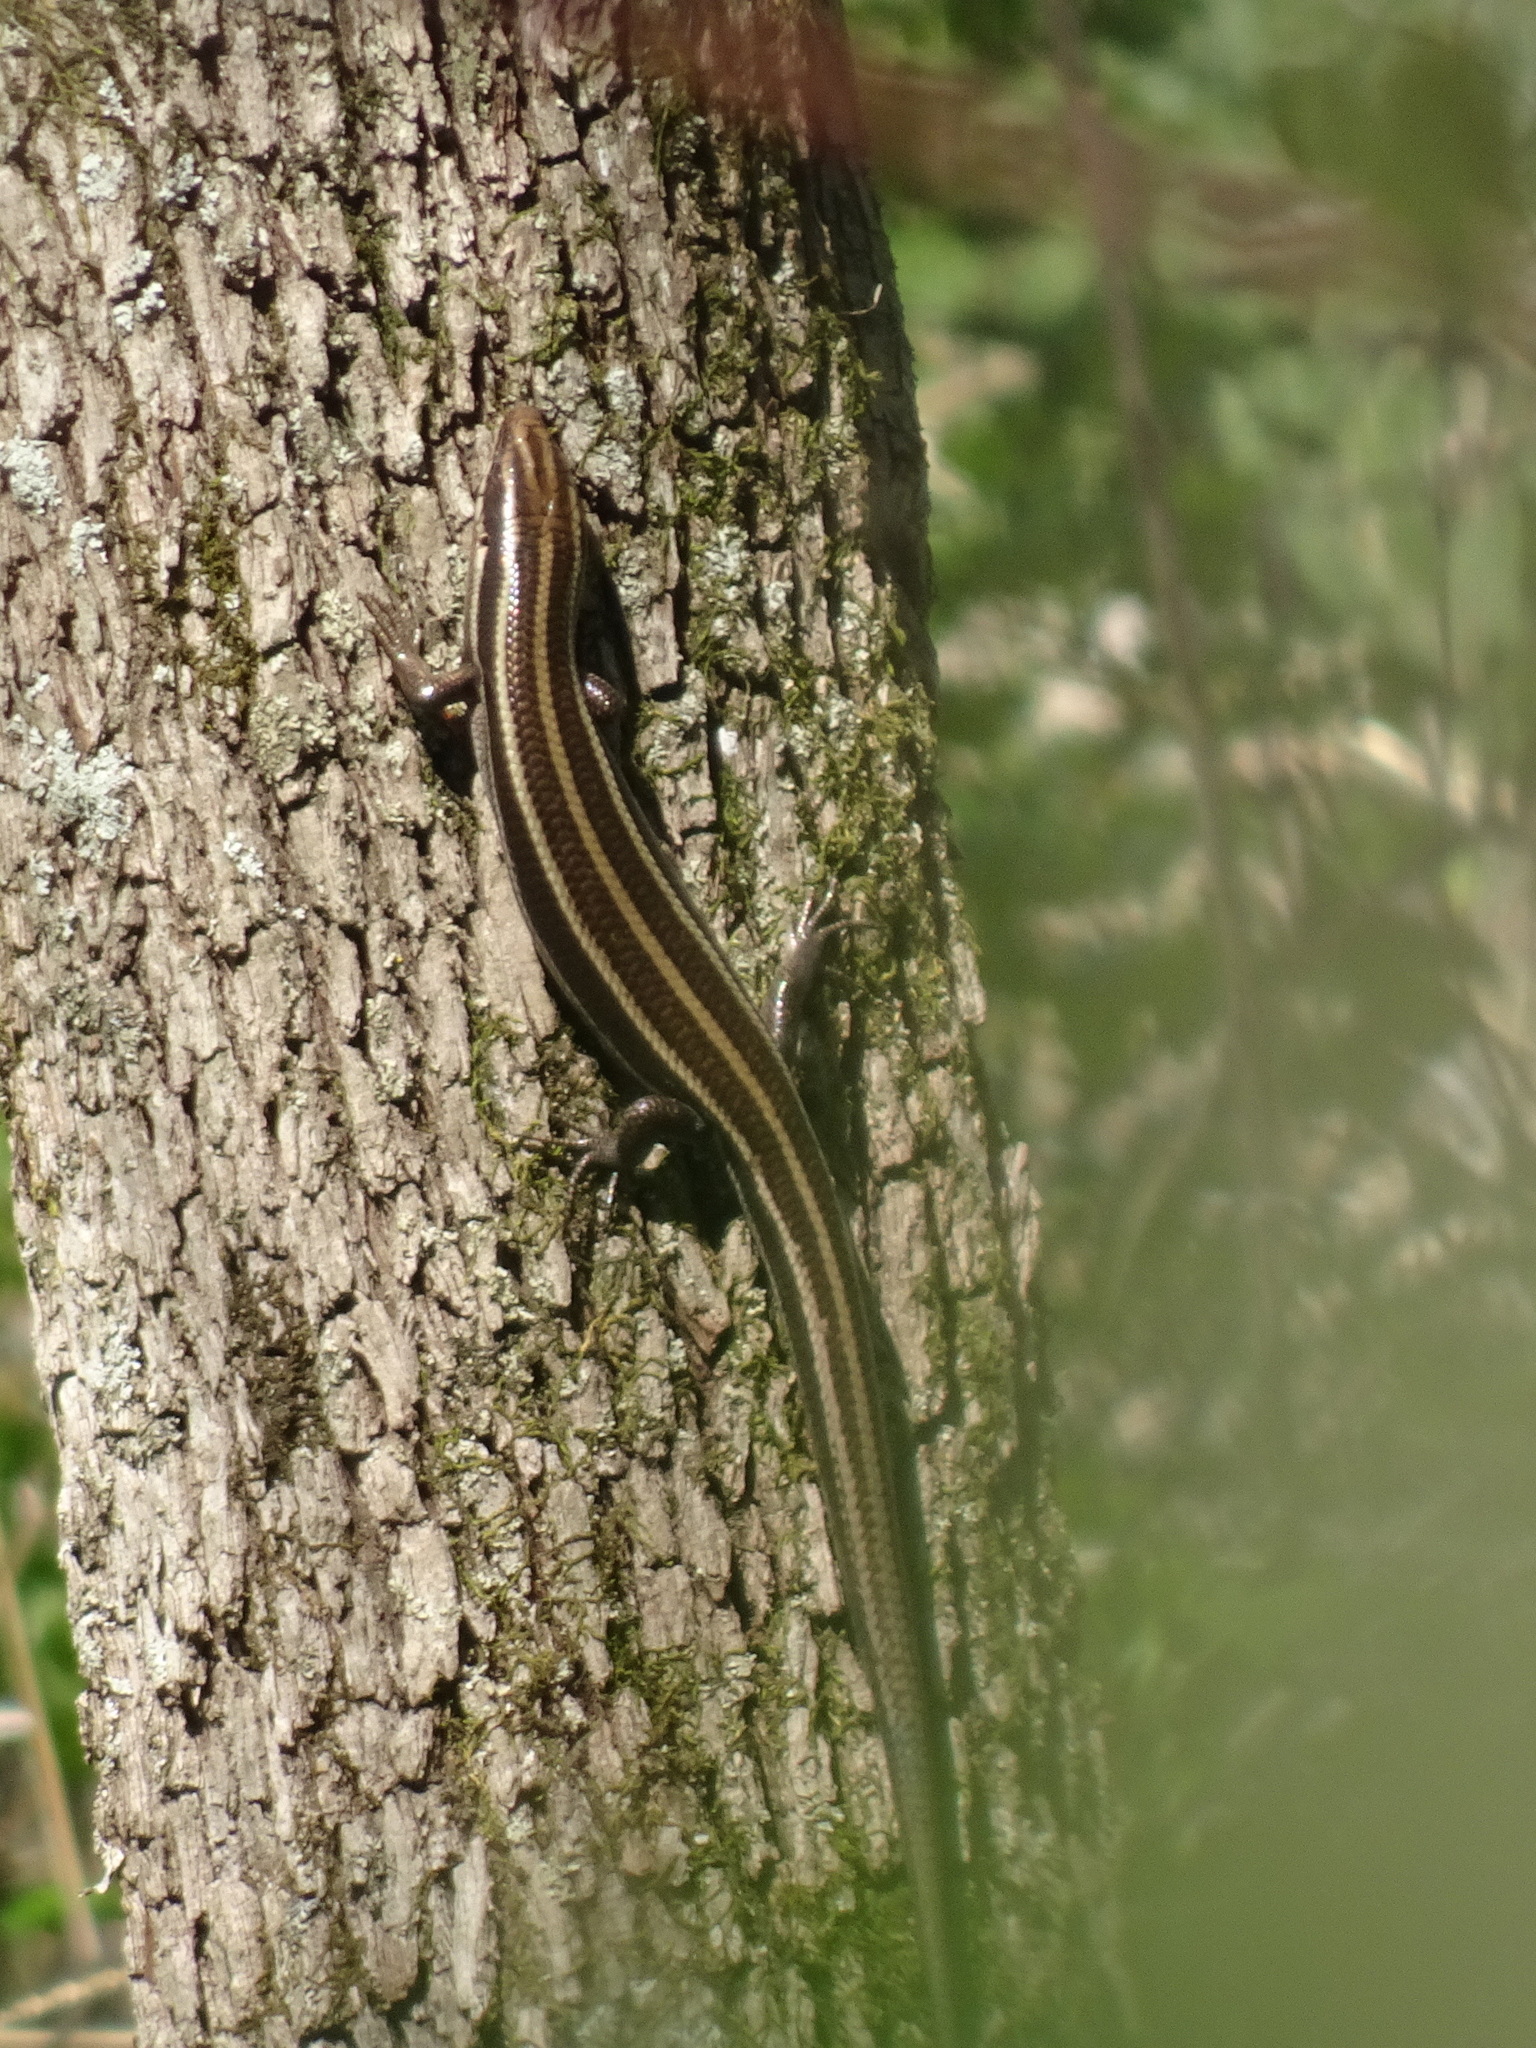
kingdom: Animalia
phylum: Chordata
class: Squamata
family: Scincidae
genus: Plestiodon
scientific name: Plestiodon fasciatus
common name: Five-lined skink
